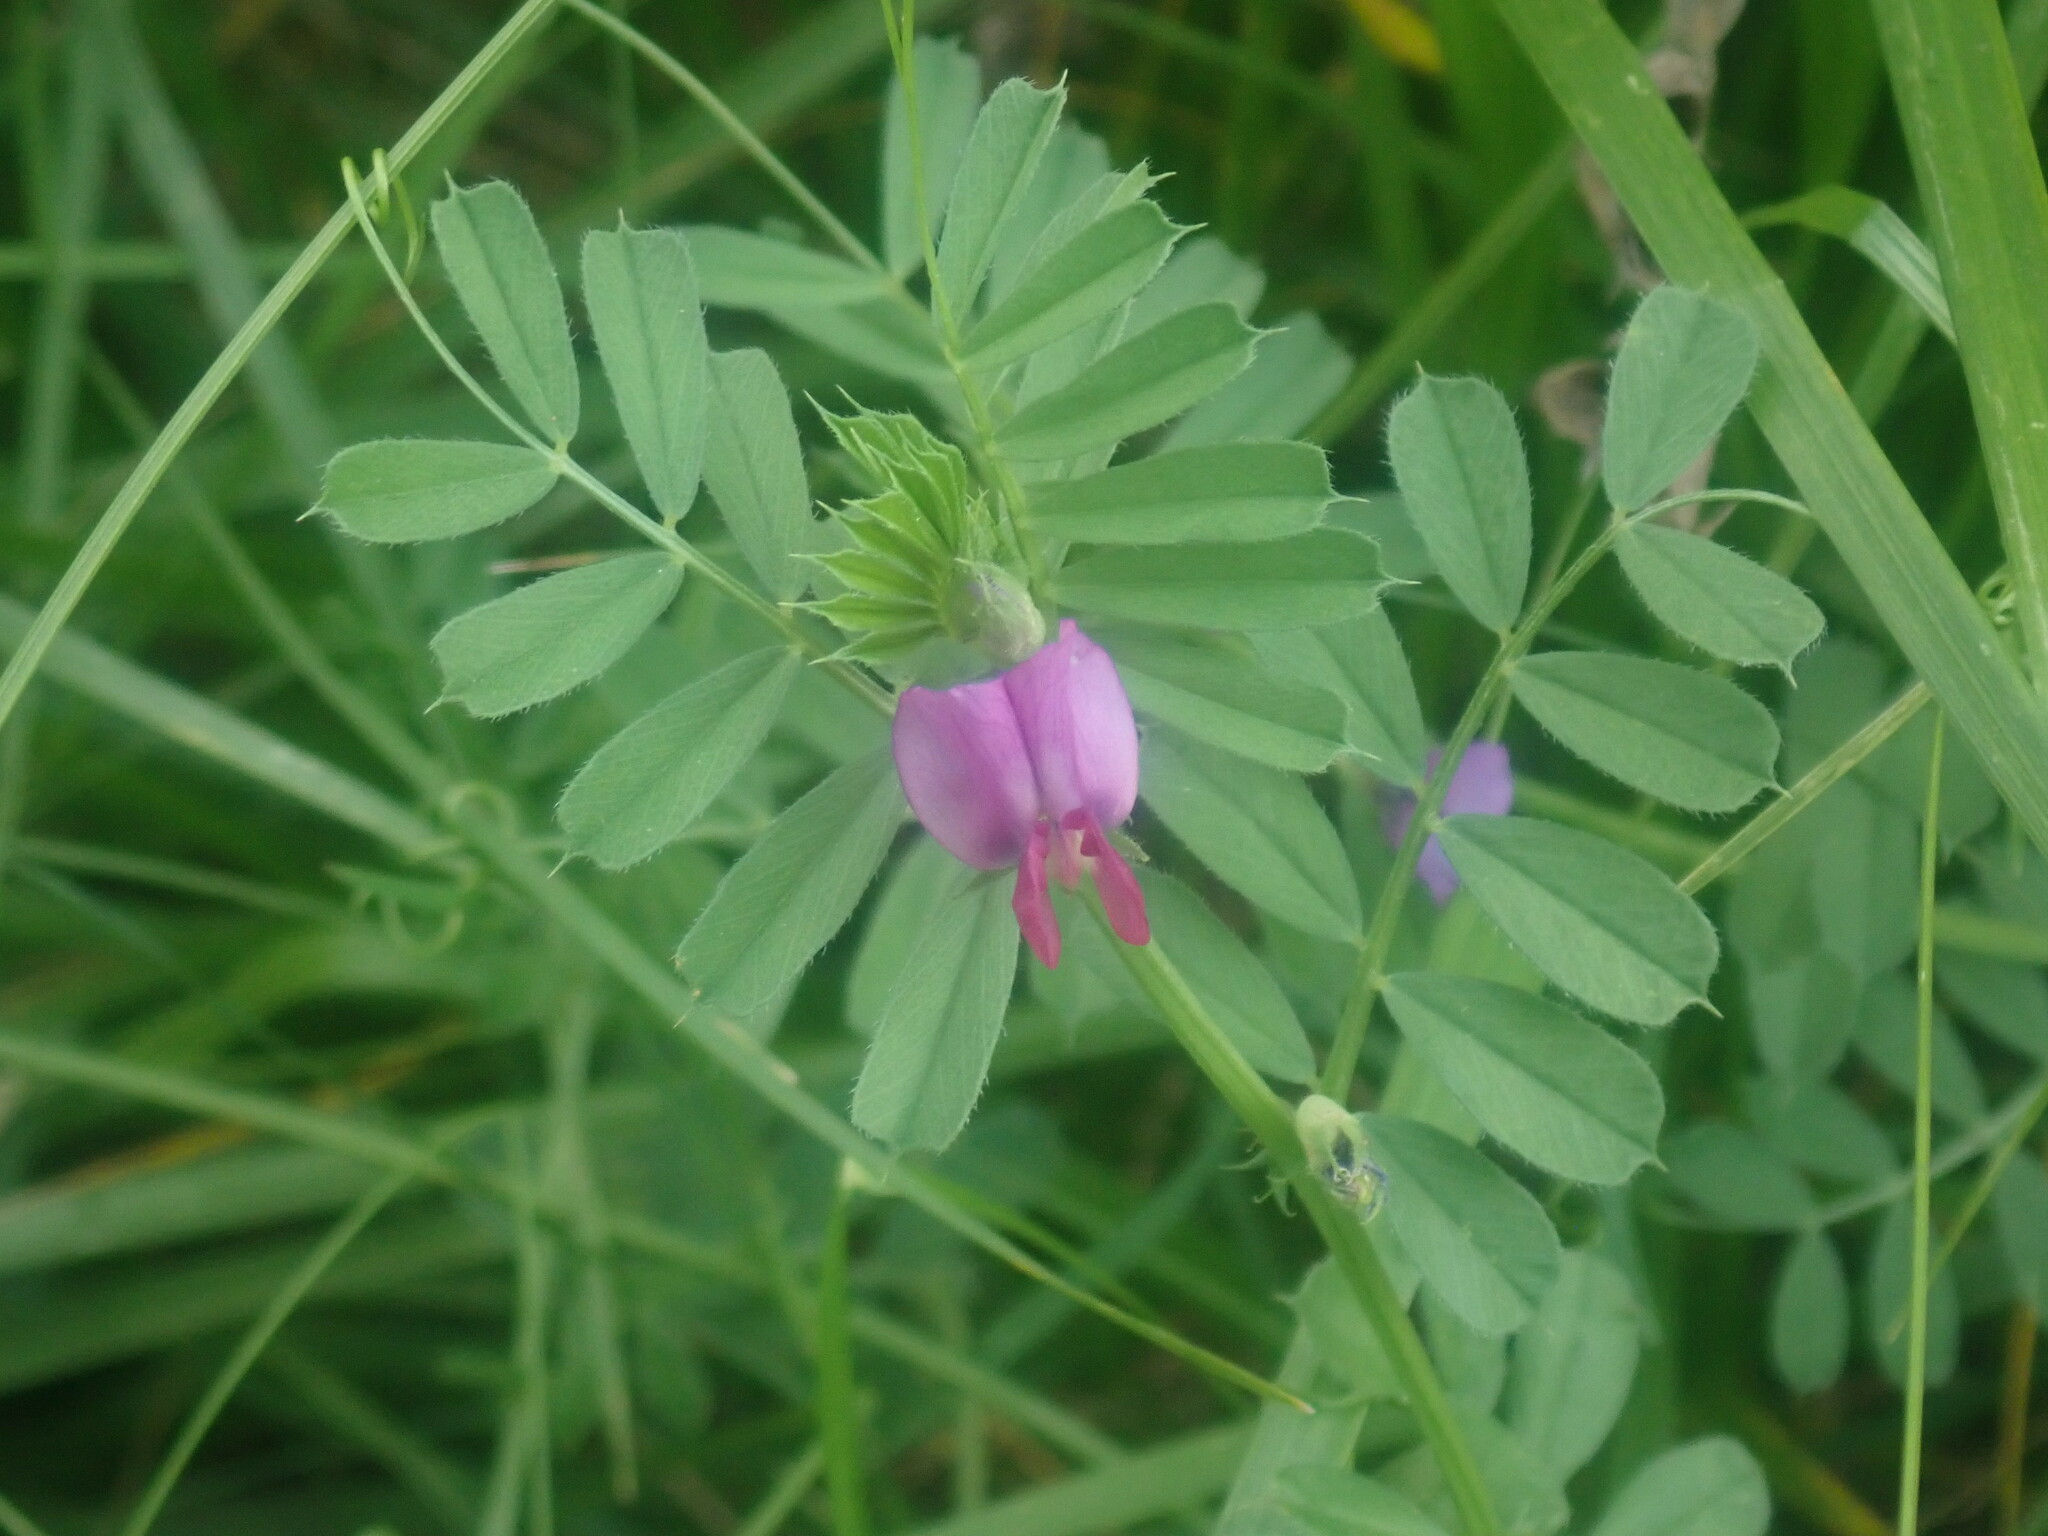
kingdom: Plantae
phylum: Tracheophyta
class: Magnoliopsida
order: Fabales
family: Fabaceae
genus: Vicia
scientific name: Vicia sativa
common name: Garden vetch
